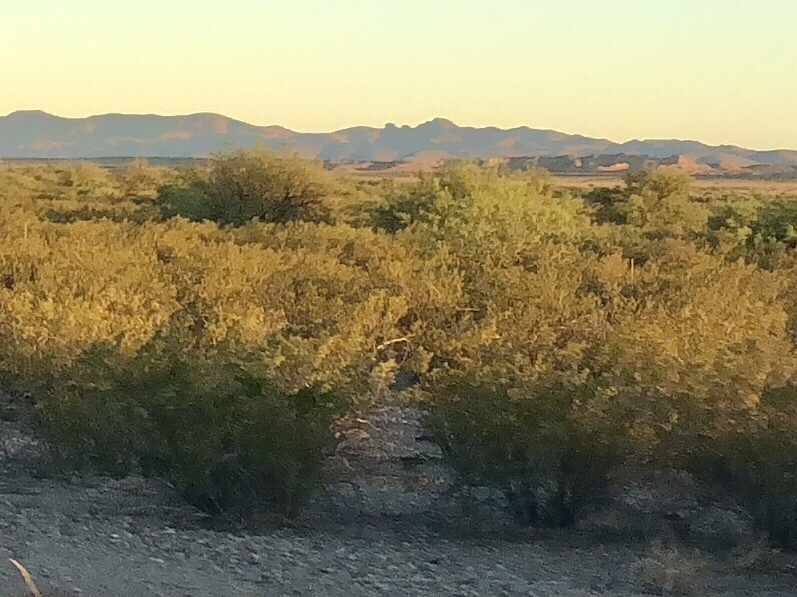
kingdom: Plantae
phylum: Tracheophyta
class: Magnoliopsida
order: Zygophyllales
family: Zygophyllaceae
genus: Larrea
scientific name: Larrea tridentata
